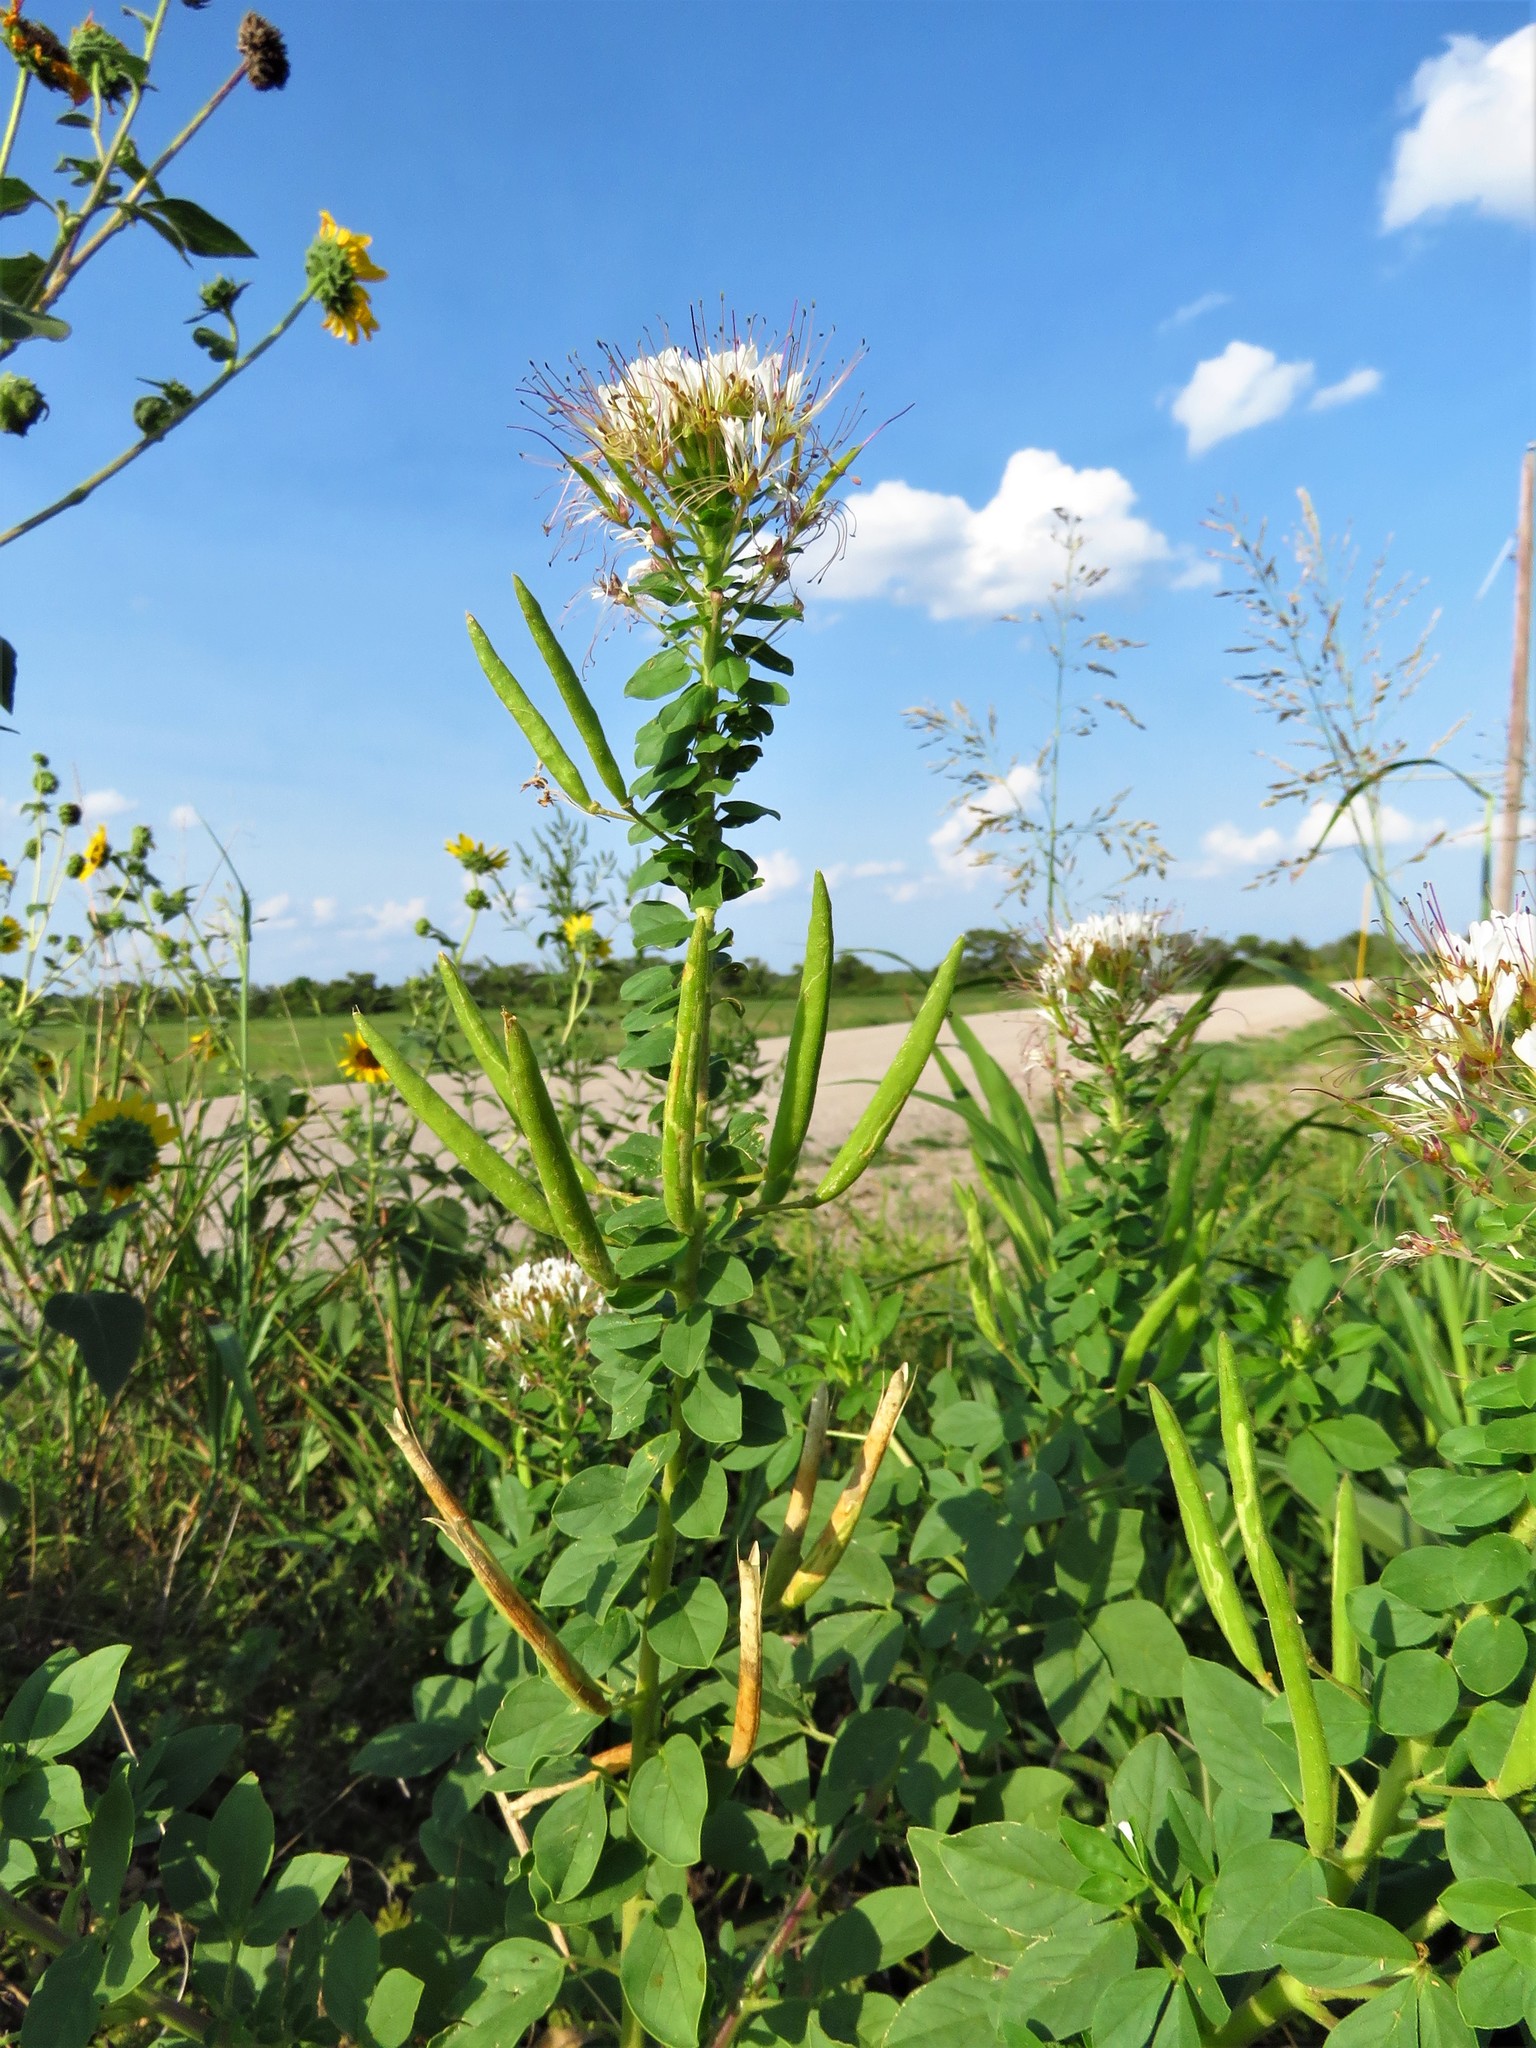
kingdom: Plantae
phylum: Tracheophyta
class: Magnoliopsida
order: Brassicales
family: Cleomaceae
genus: Polanisia
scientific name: Polanisia dodecandra
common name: Clammyweed
